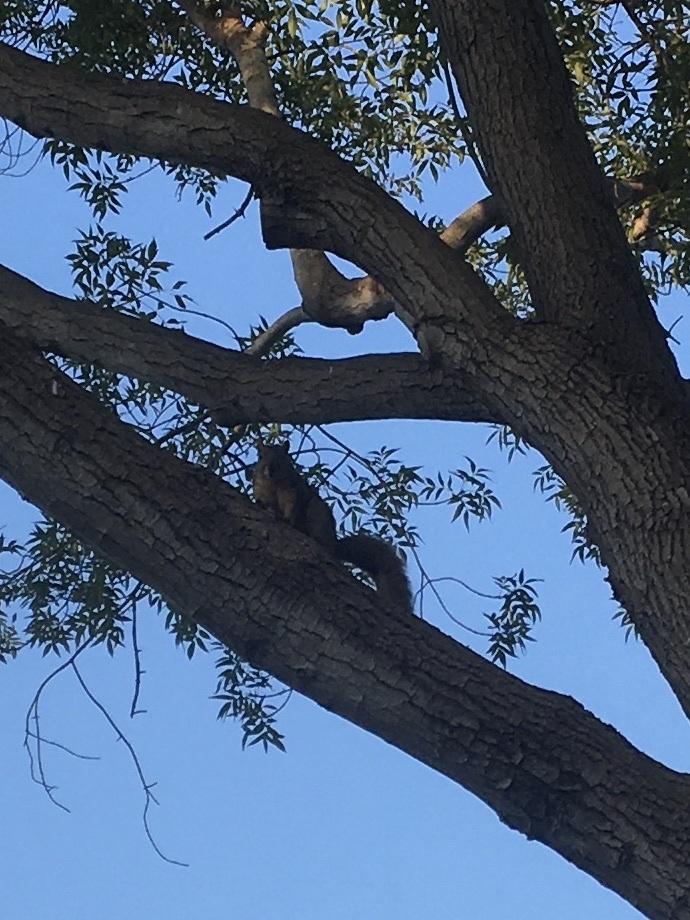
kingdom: Animalia
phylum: Chordata
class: Mammalia
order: Rodentia
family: Sciuridae
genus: Sciurus
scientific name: Sciurus niger
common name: Fox squirrel
